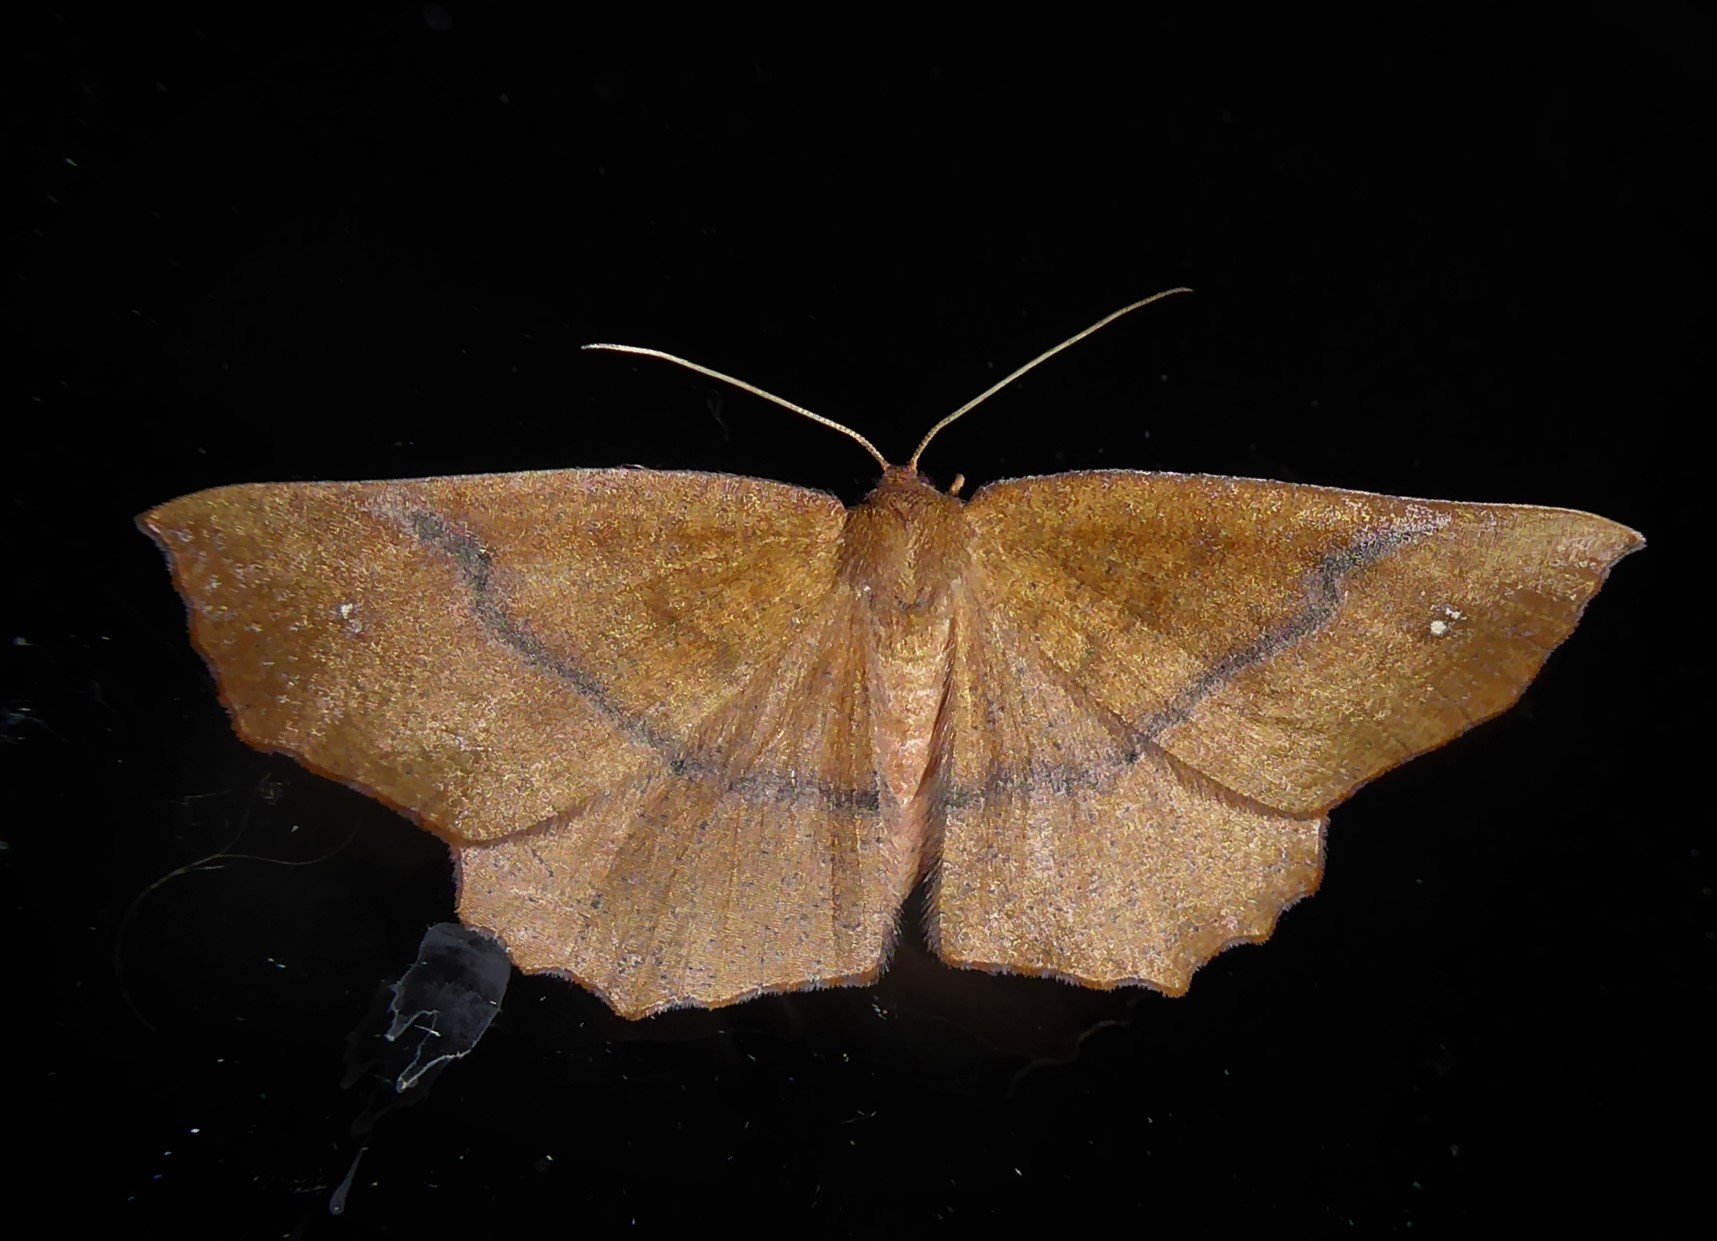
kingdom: Animalia
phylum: Arthropoda
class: Insecta
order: Lepidoptera
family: Geometridae
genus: Xyridacma
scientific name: Xyridacma ustaria
